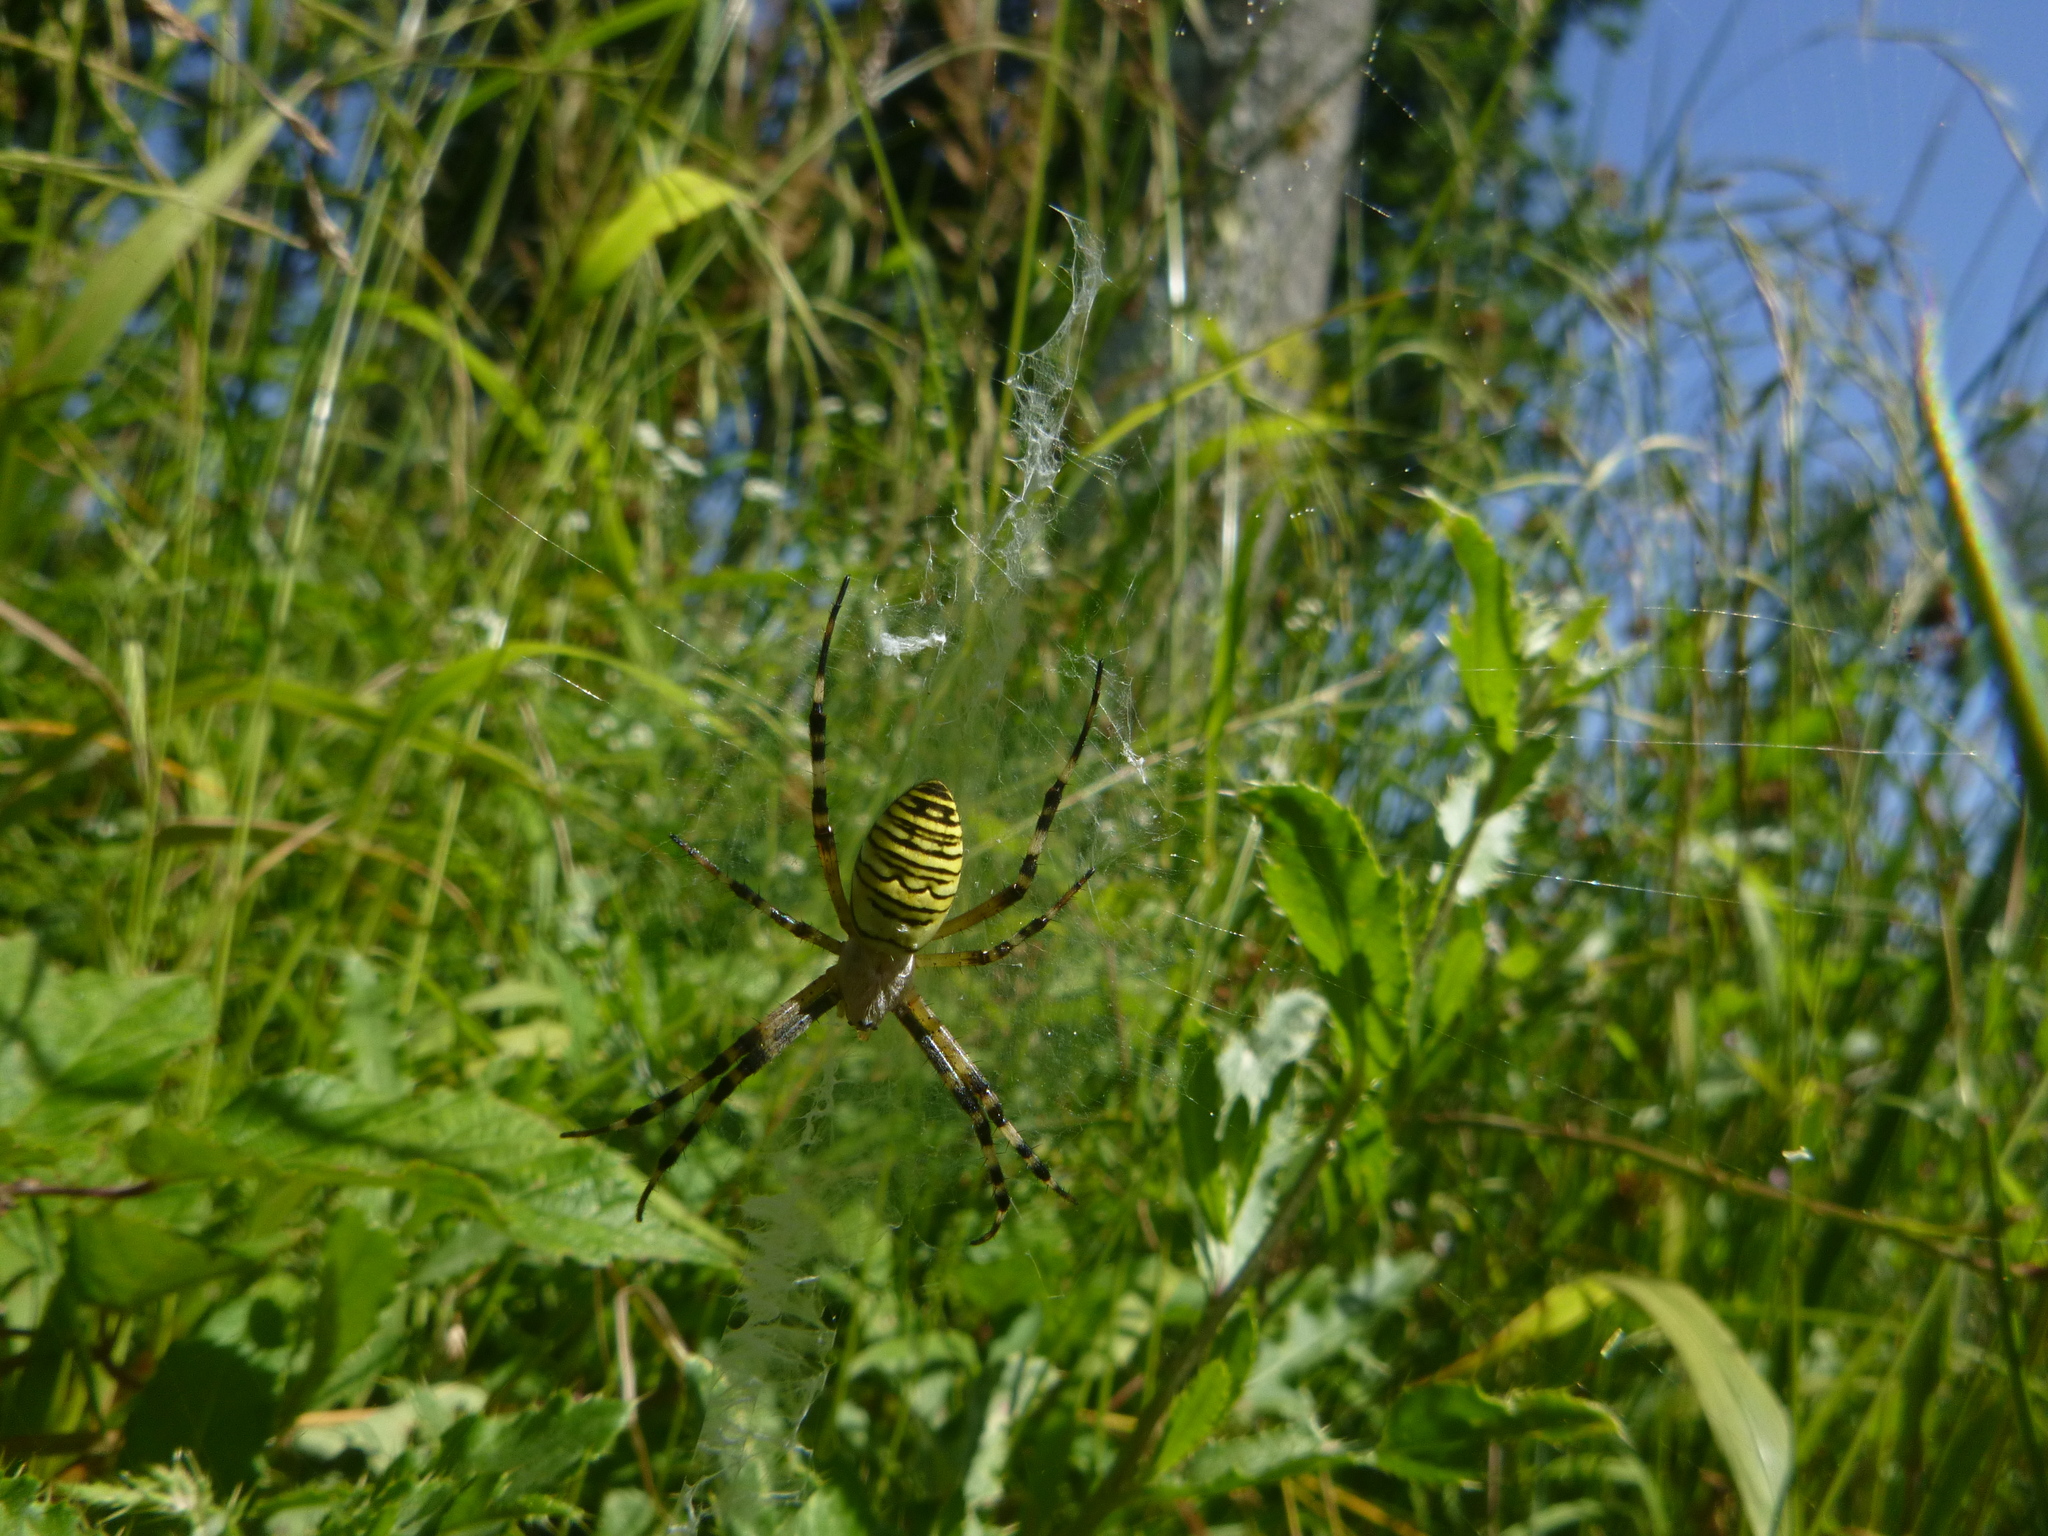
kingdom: Animalia
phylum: Arthropoda
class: Arachnida
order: Araneae
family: Araneidae
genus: Argiope
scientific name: Argiope bruennichi
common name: Wasp spider
